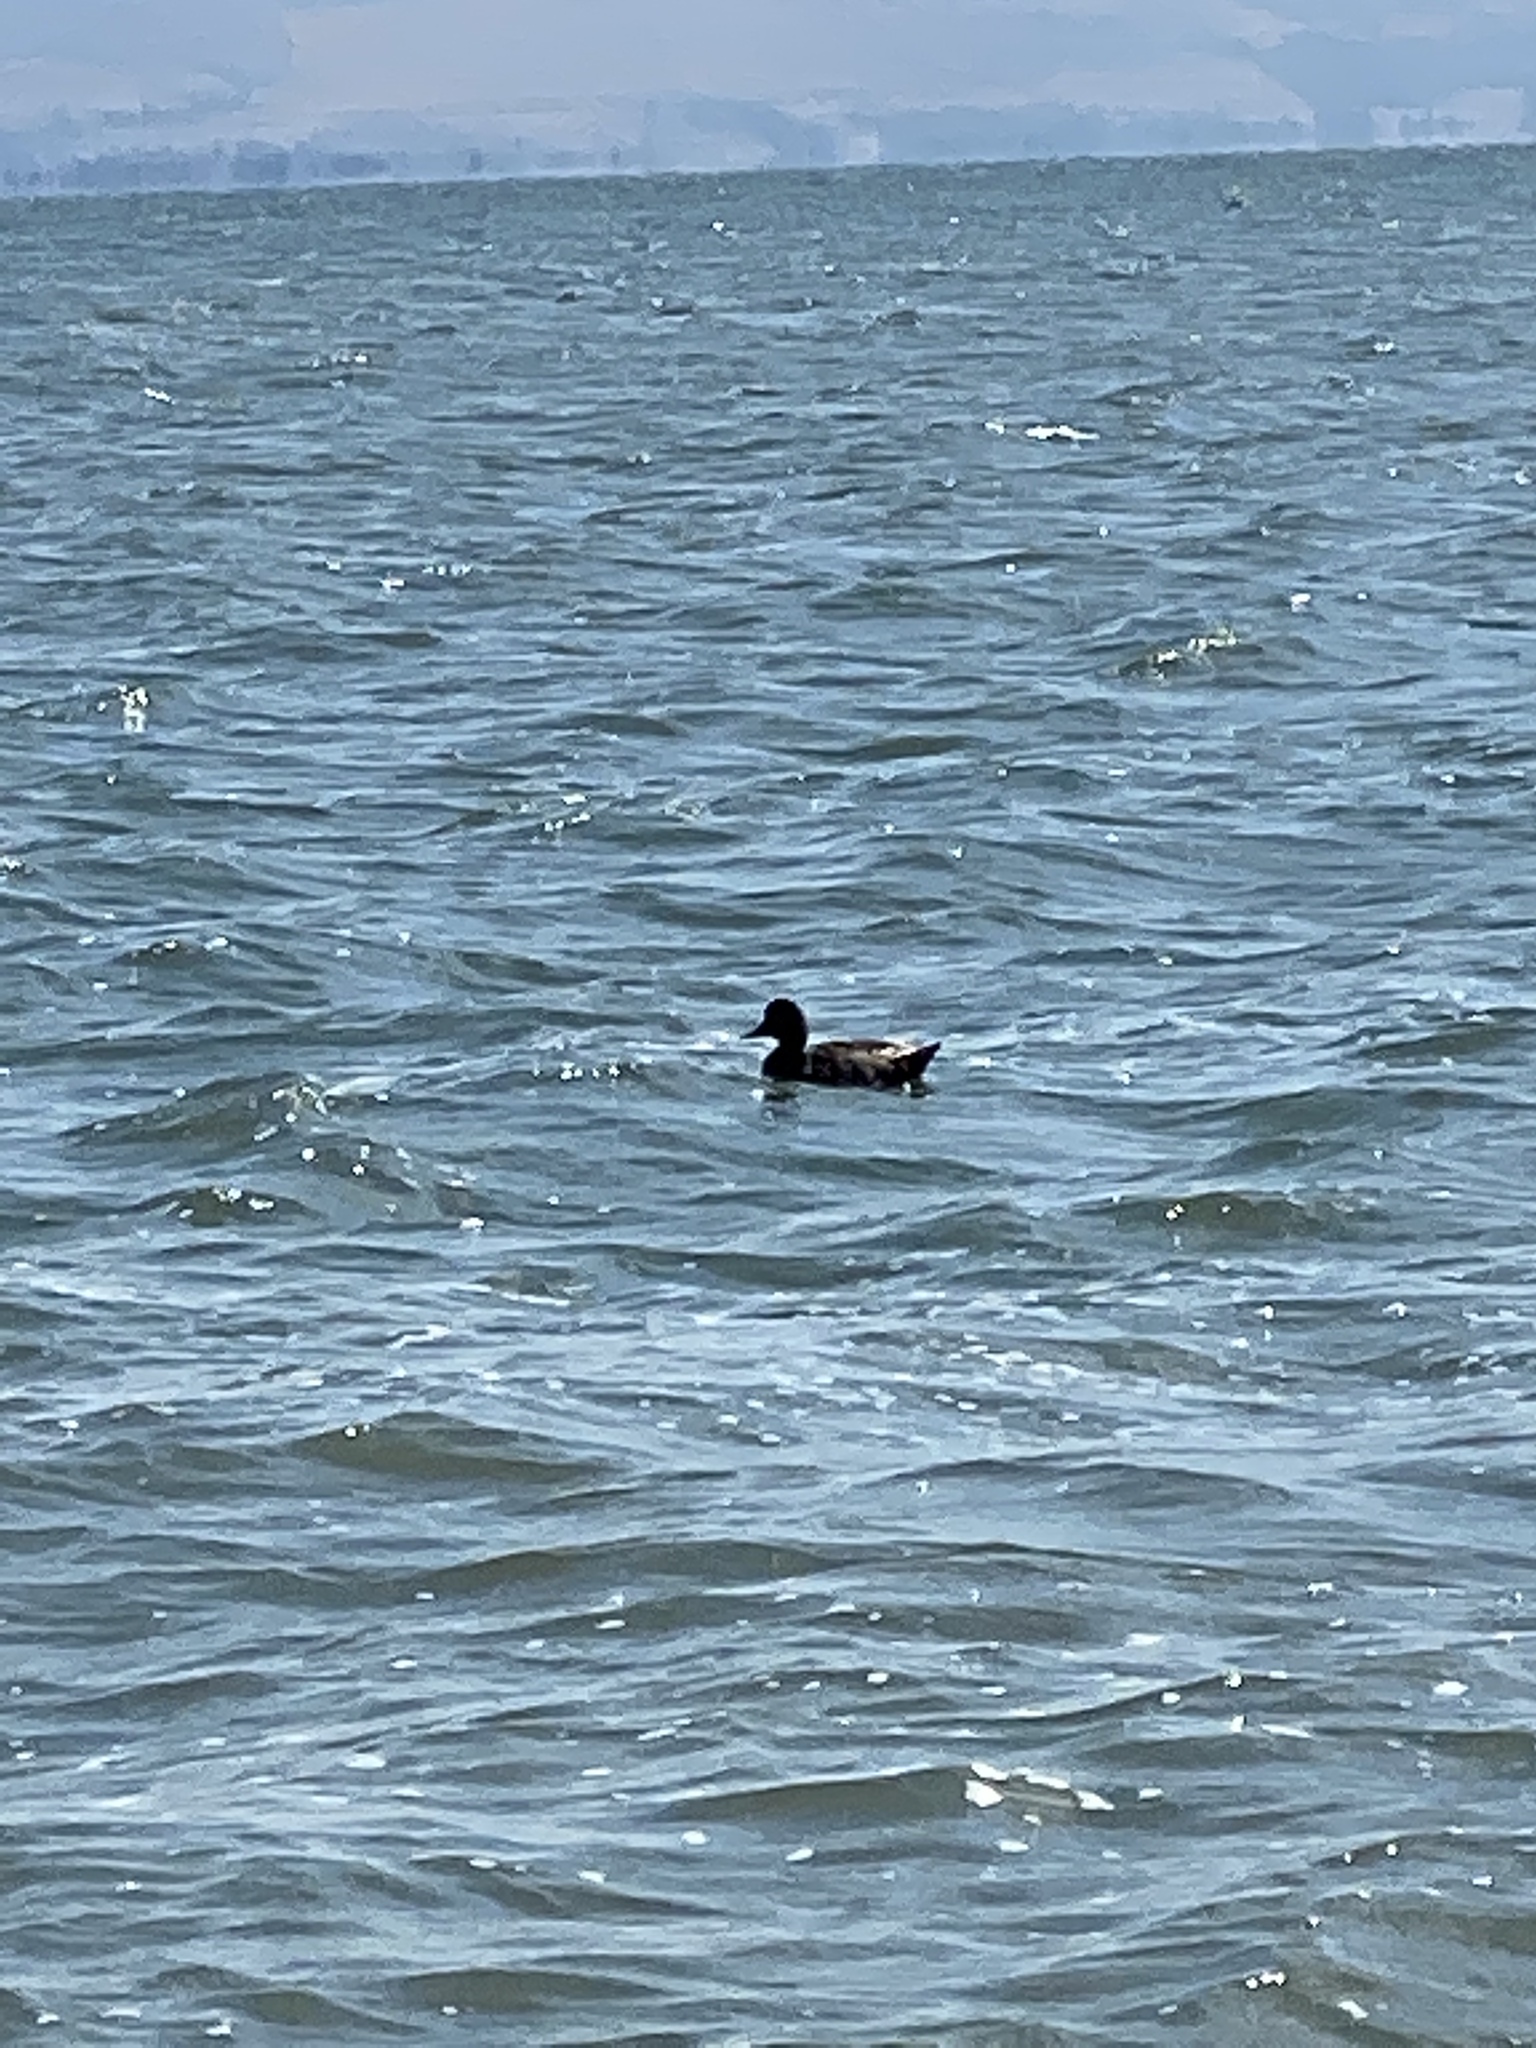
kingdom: Animalia
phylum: Chordata
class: Aves
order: Anseriformes
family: Anatidae
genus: Anas
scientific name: Anas platyrhynchos
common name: Mallard
